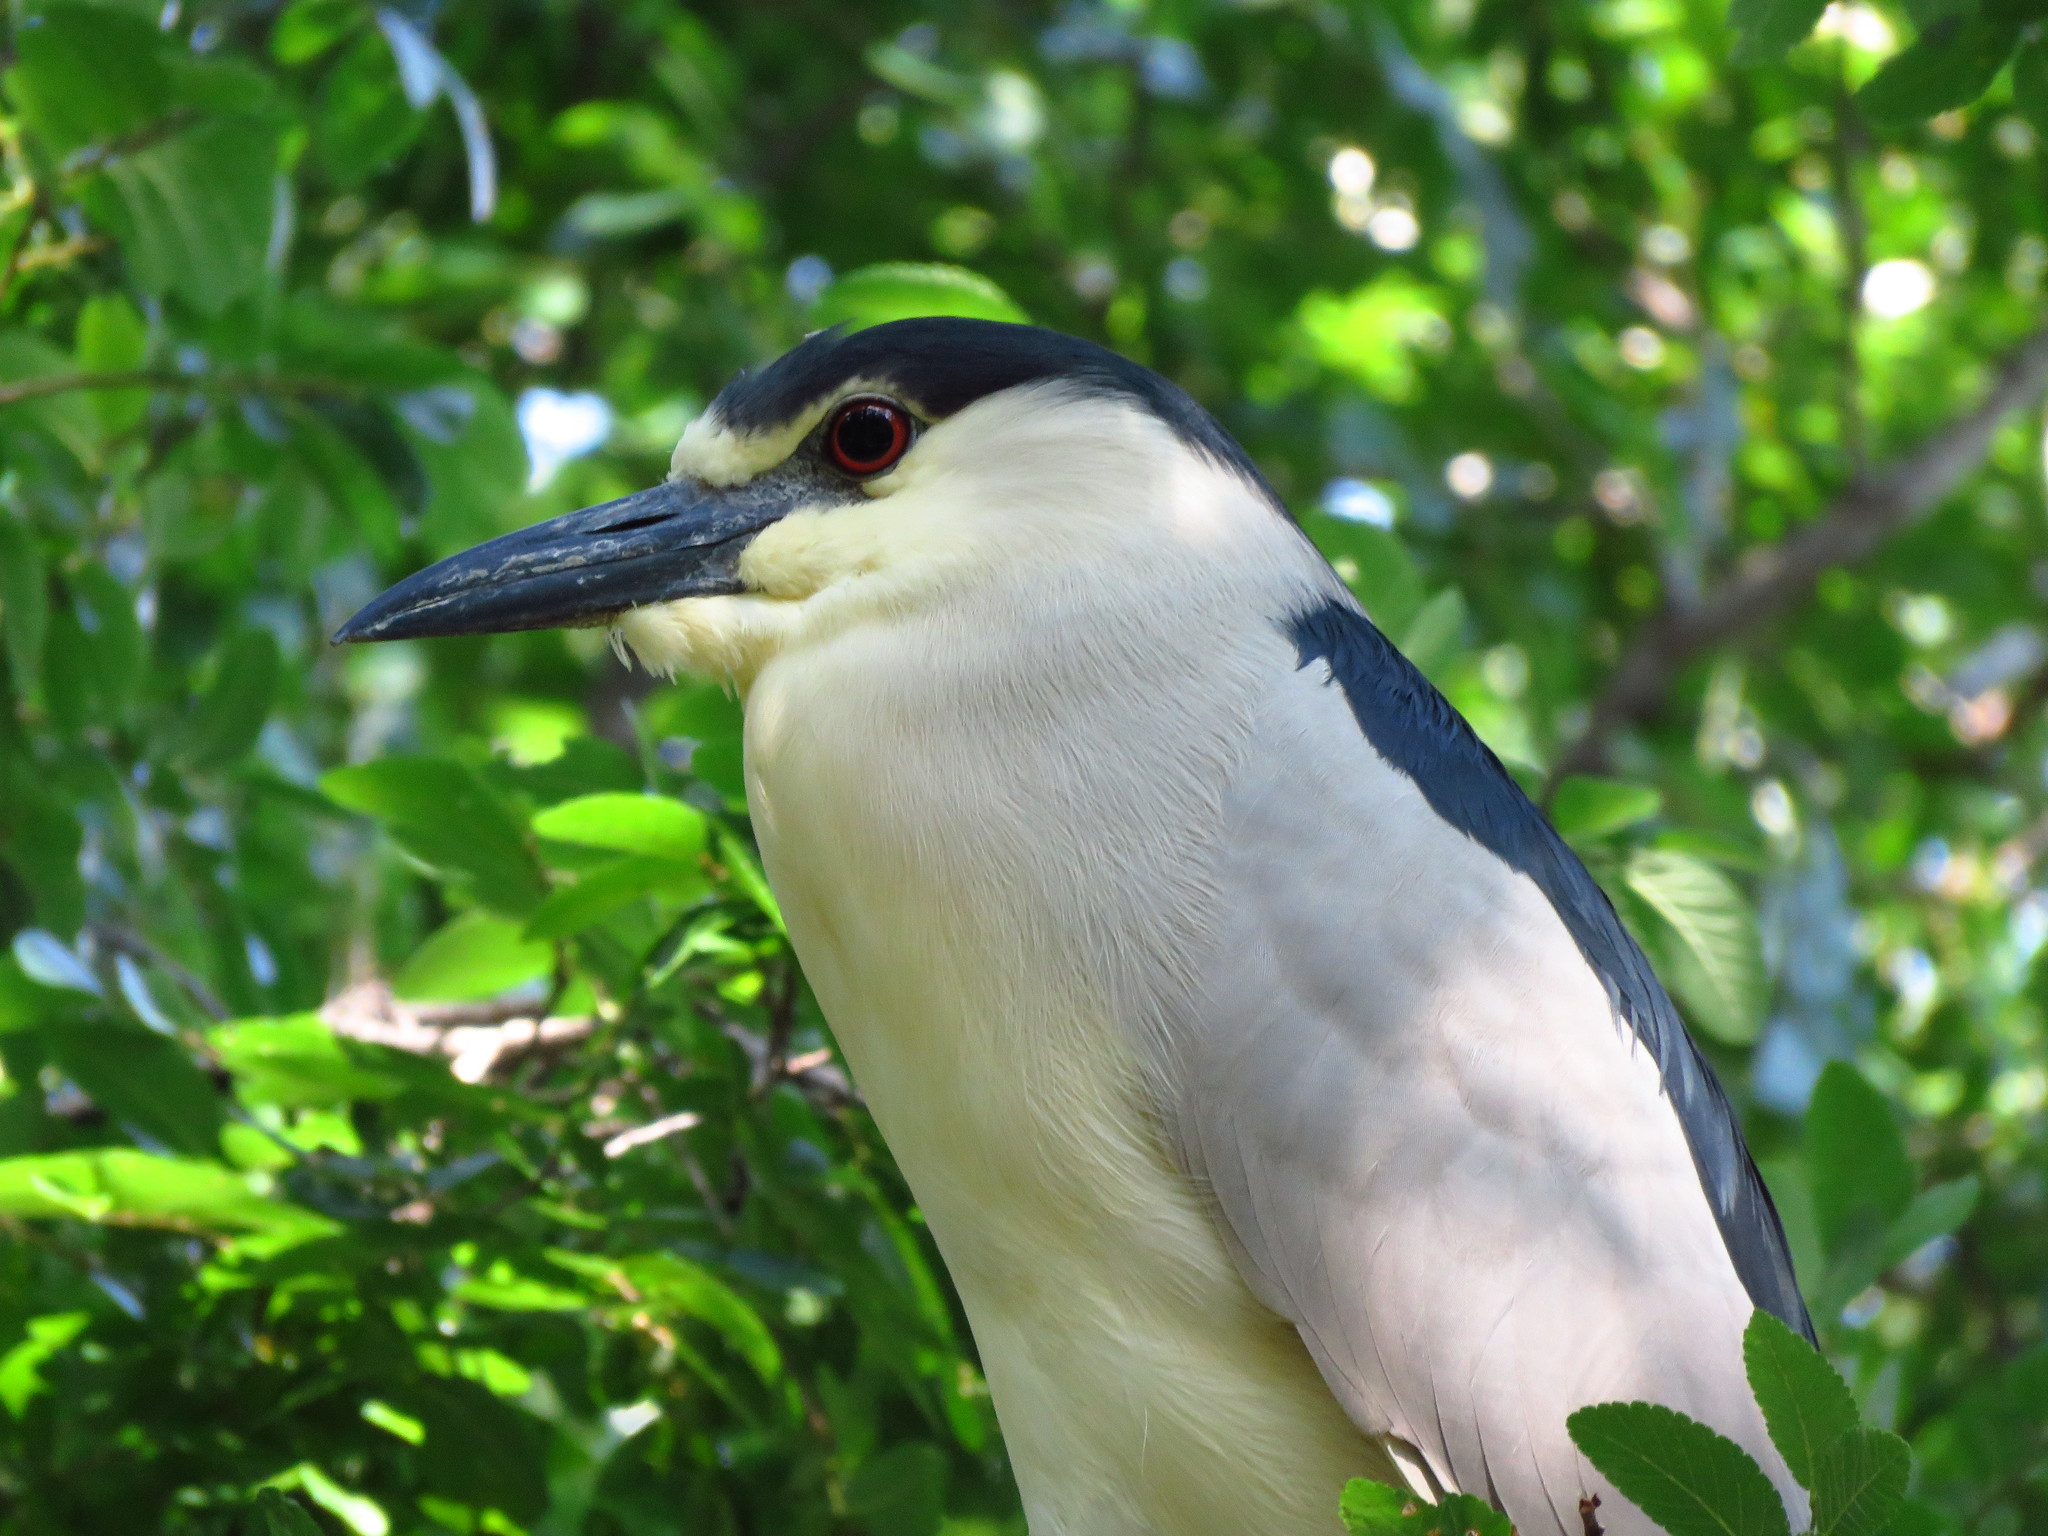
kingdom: Animalia
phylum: Chordata
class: Aves
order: Pelecaniformes
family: Ardeidae
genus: Nycticorax
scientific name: Nycticorax nycticorax
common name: Black-crowned night heron
